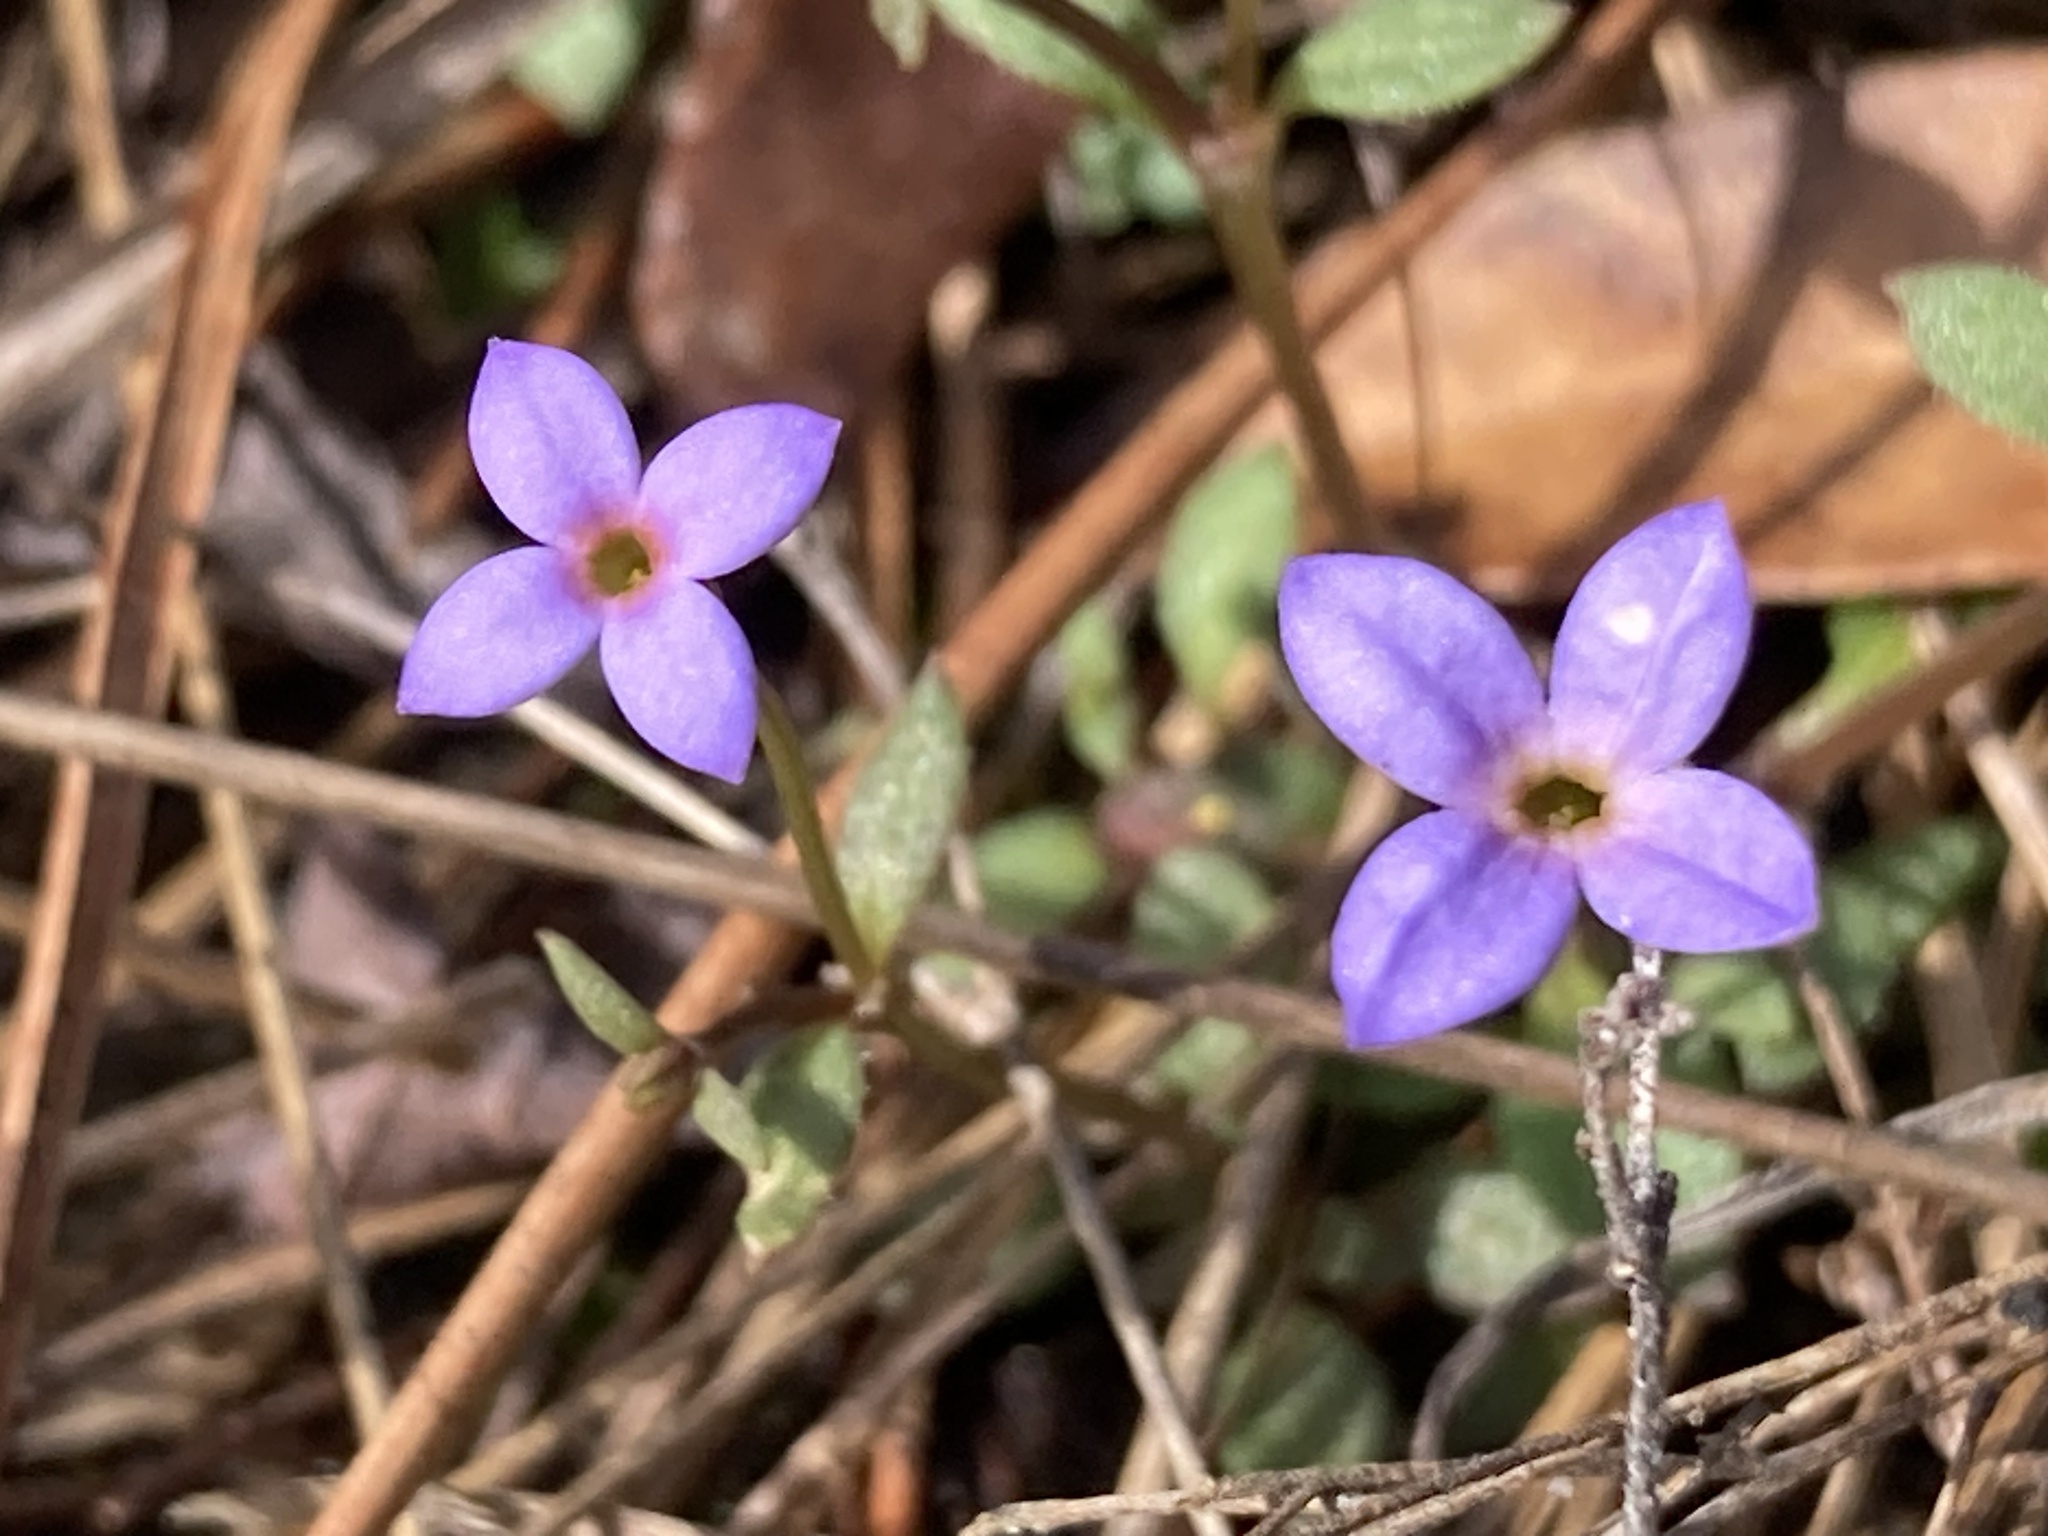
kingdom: Plantae
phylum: Tracheophyta
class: Magnoliopsida
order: Gentianales
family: Rubiaceae
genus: Houstonia
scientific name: Houstonia pusilla
